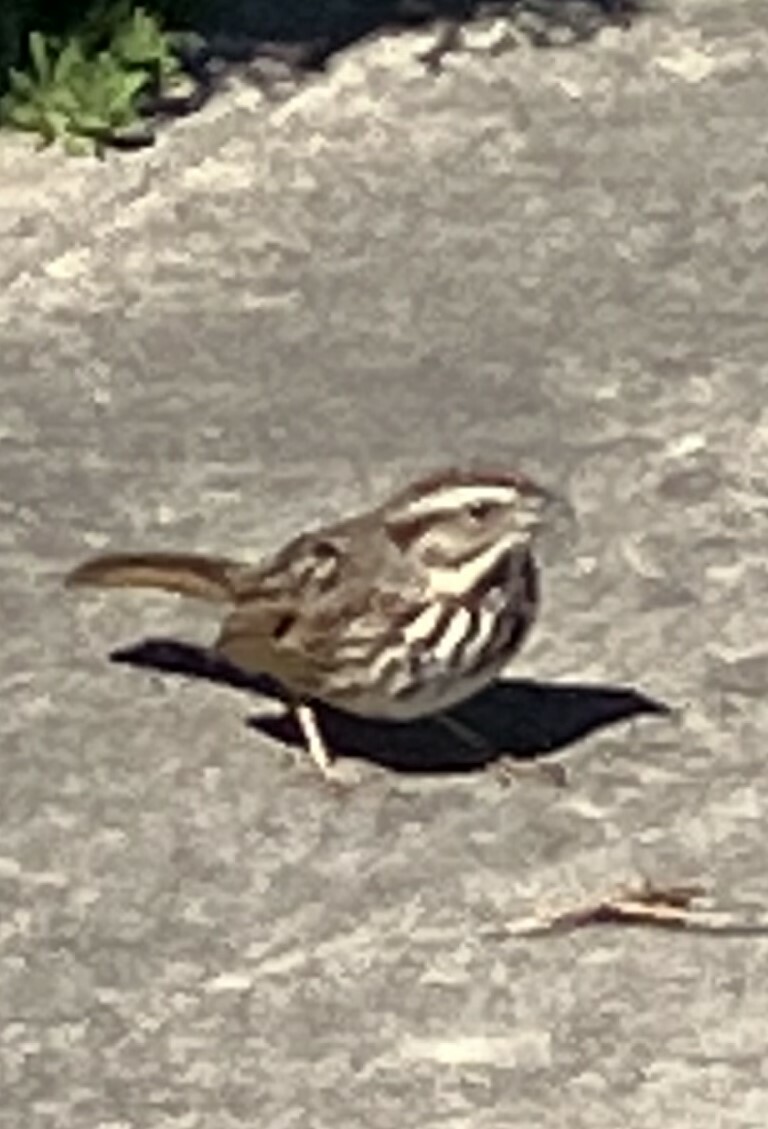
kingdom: Animalia
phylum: Chordata
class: Aves
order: Passeriformes
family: Passerellidae
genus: Melospiza
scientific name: Melospiza melodia
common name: Song sparrow
